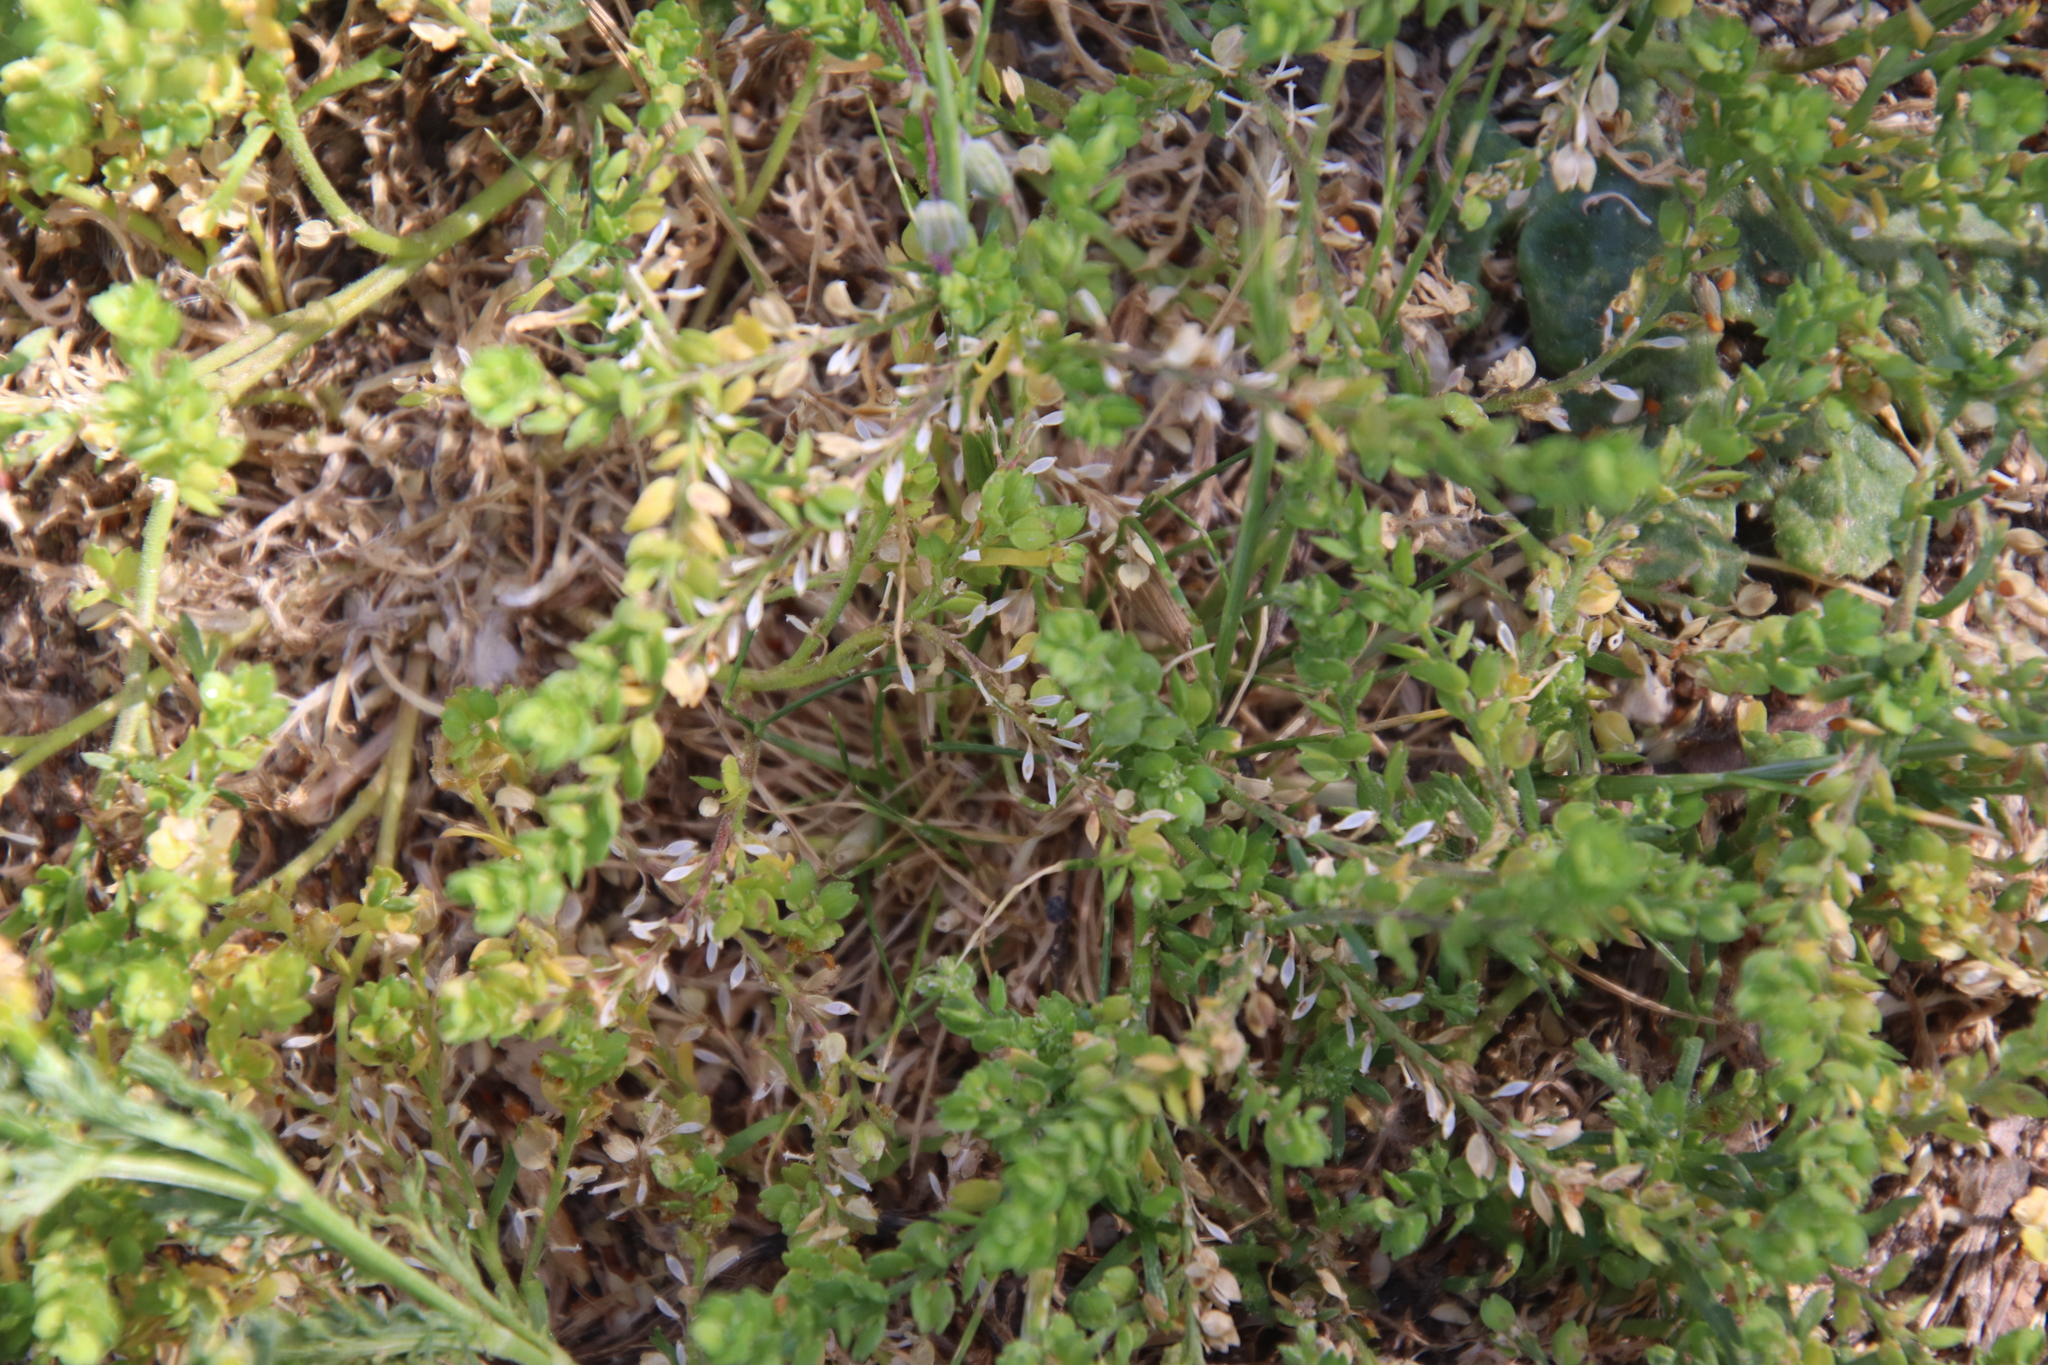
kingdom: Plantae
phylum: Tracheophyta
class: Magnoliopsida
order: Brassicales
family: Brassicaceae
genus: Lepidium
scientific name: Lepidium strictum
